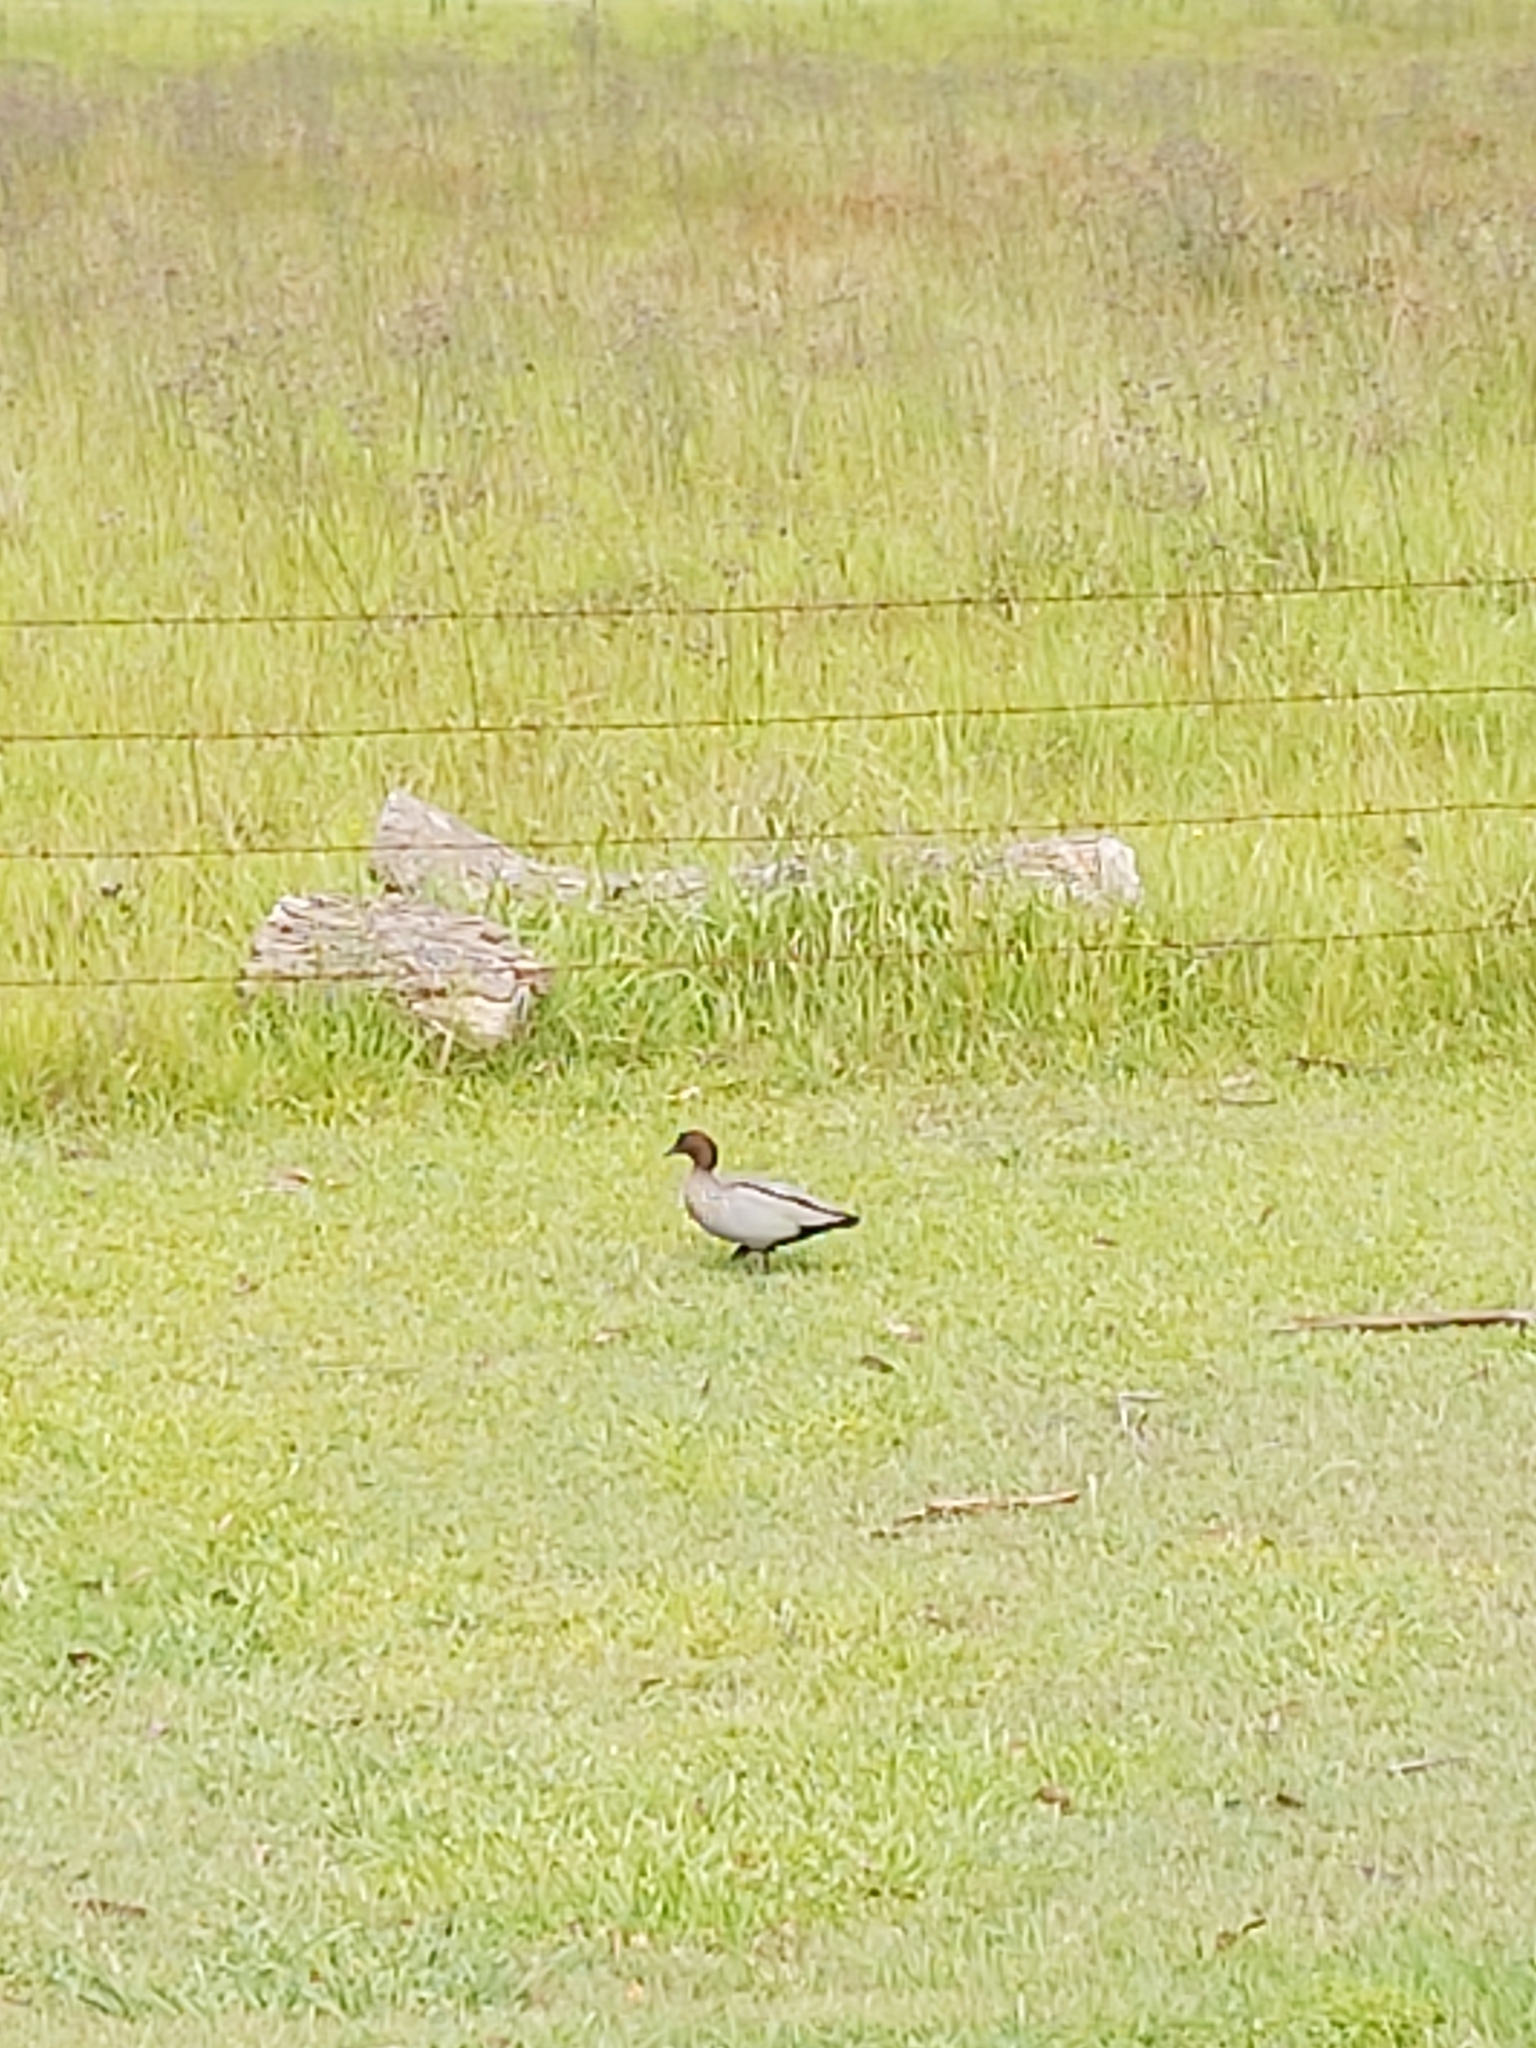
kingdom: Animalia
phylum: Chordata
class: Aves
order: Anseriformes
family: Anatidae
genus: Chenonetta
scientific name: Chenonetta jubata
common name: Maned duck
